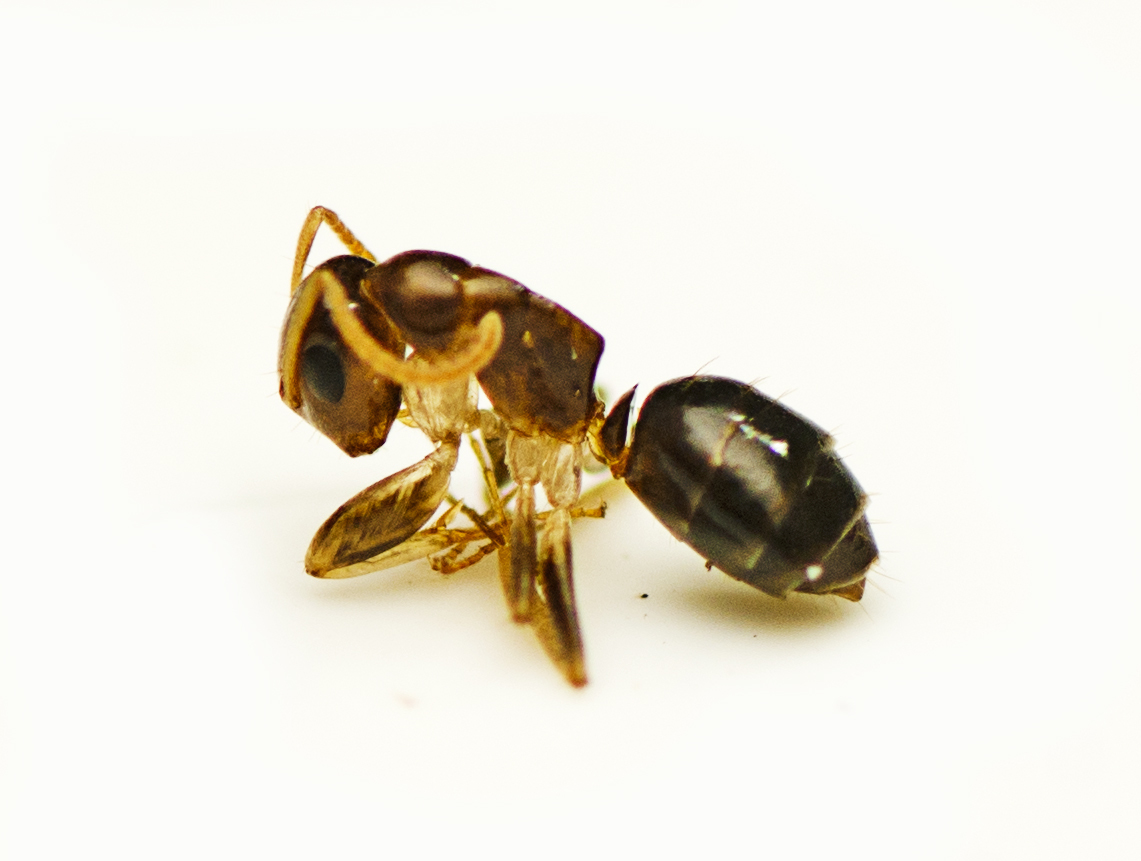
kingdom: Animalia
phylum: Arthropoda
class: Insecta
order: Hymenoptera
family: Formicidae
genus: Colobopsis
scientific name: Colobopsis
